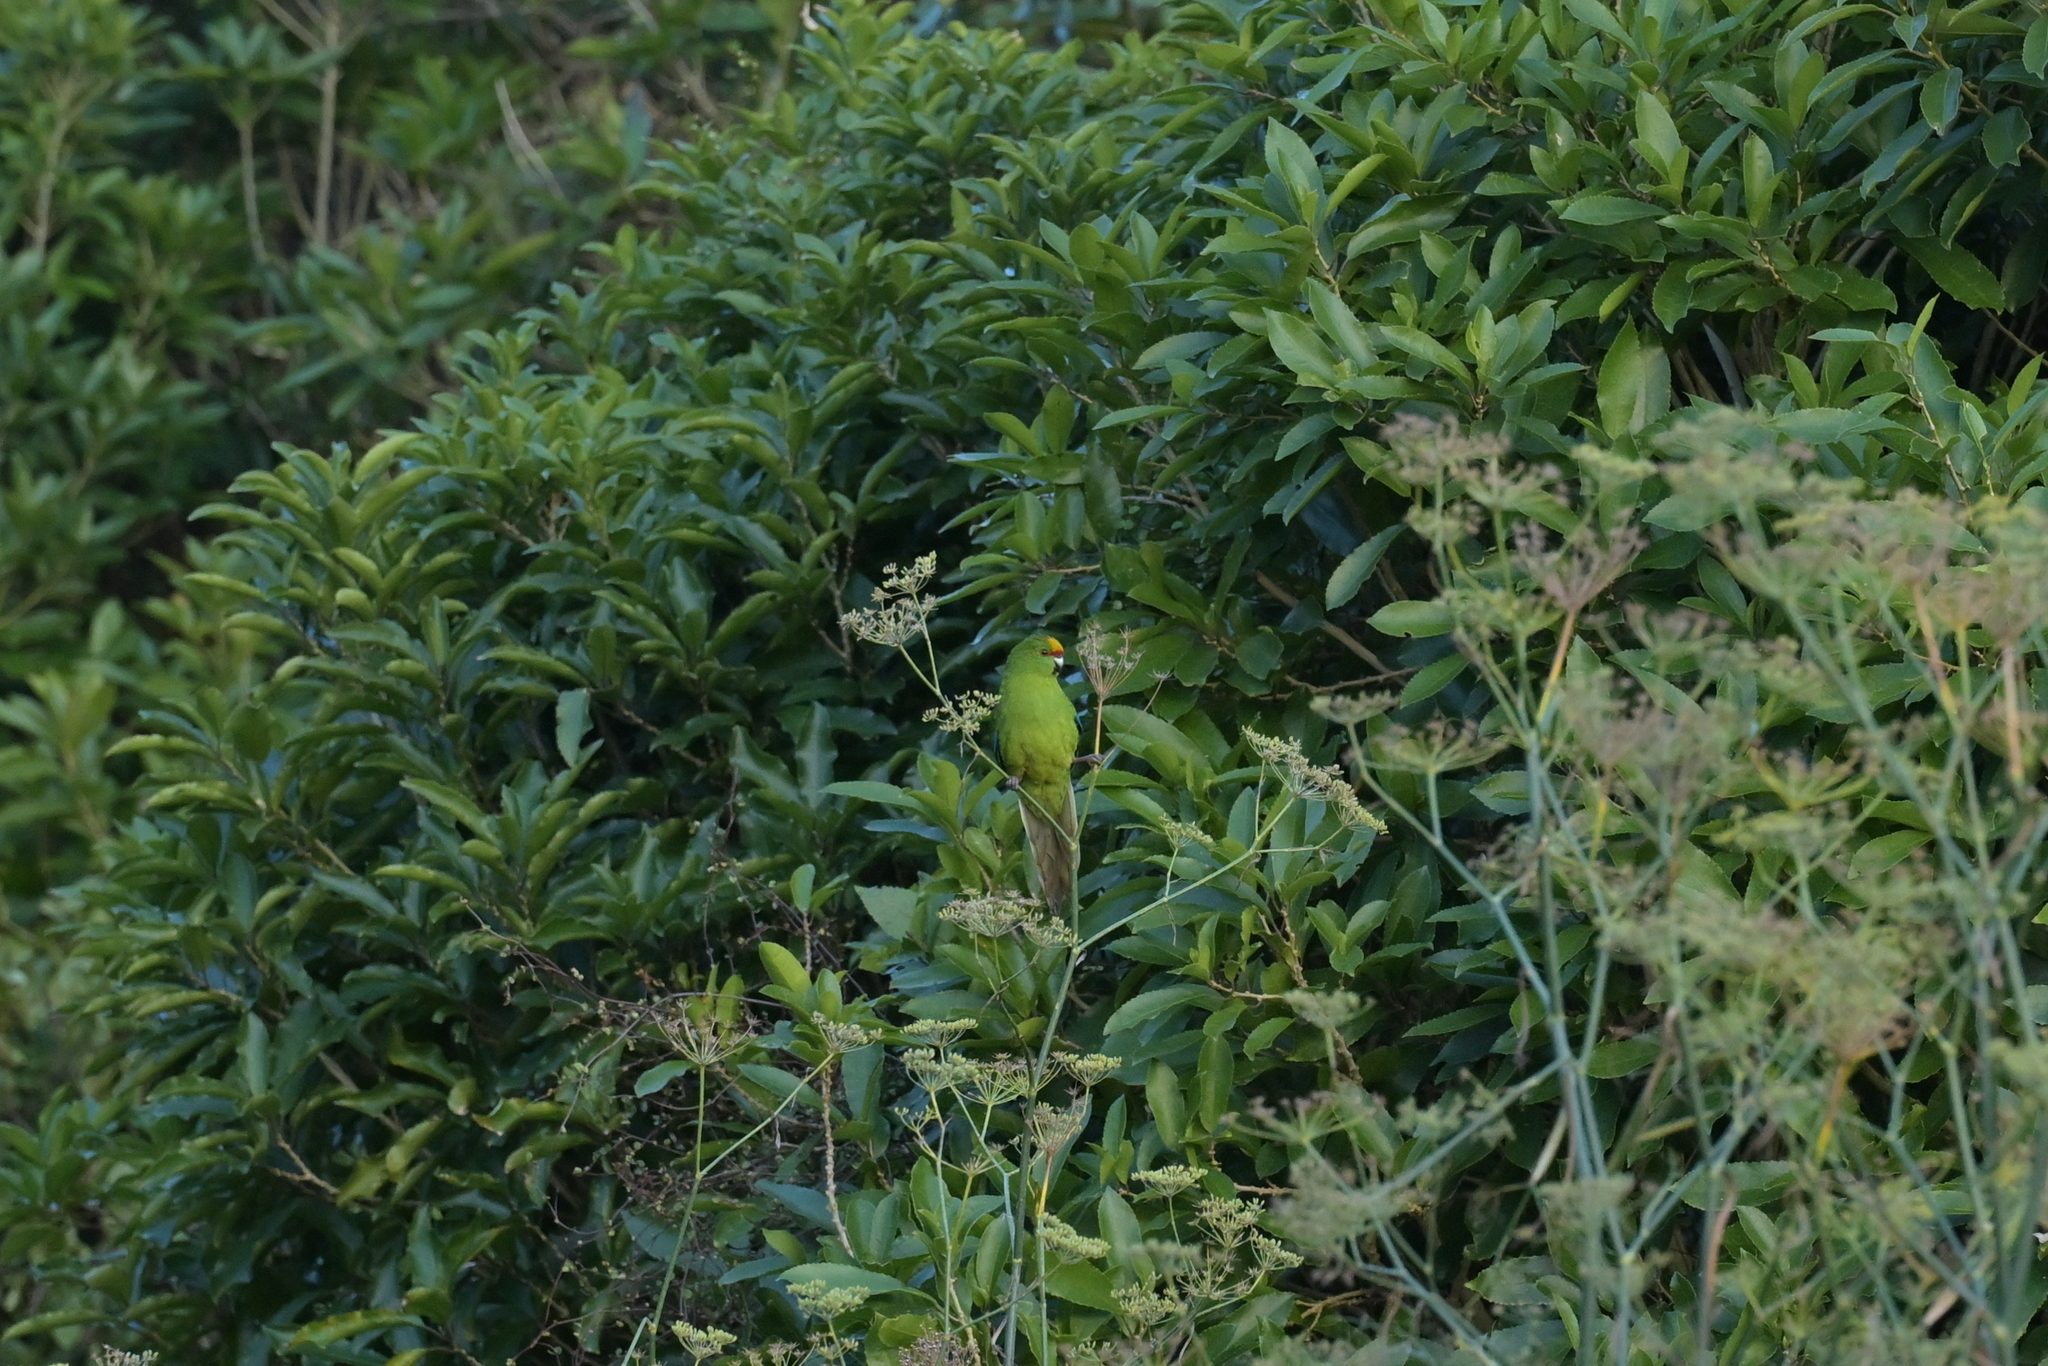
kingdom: Animalia
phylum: Chordata
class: Aves
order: Psittaciformes
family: Psittacidae
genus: Cyanoramphus
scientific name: Cyanoramphus auriceps
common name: Yellow-crowned parakeet
